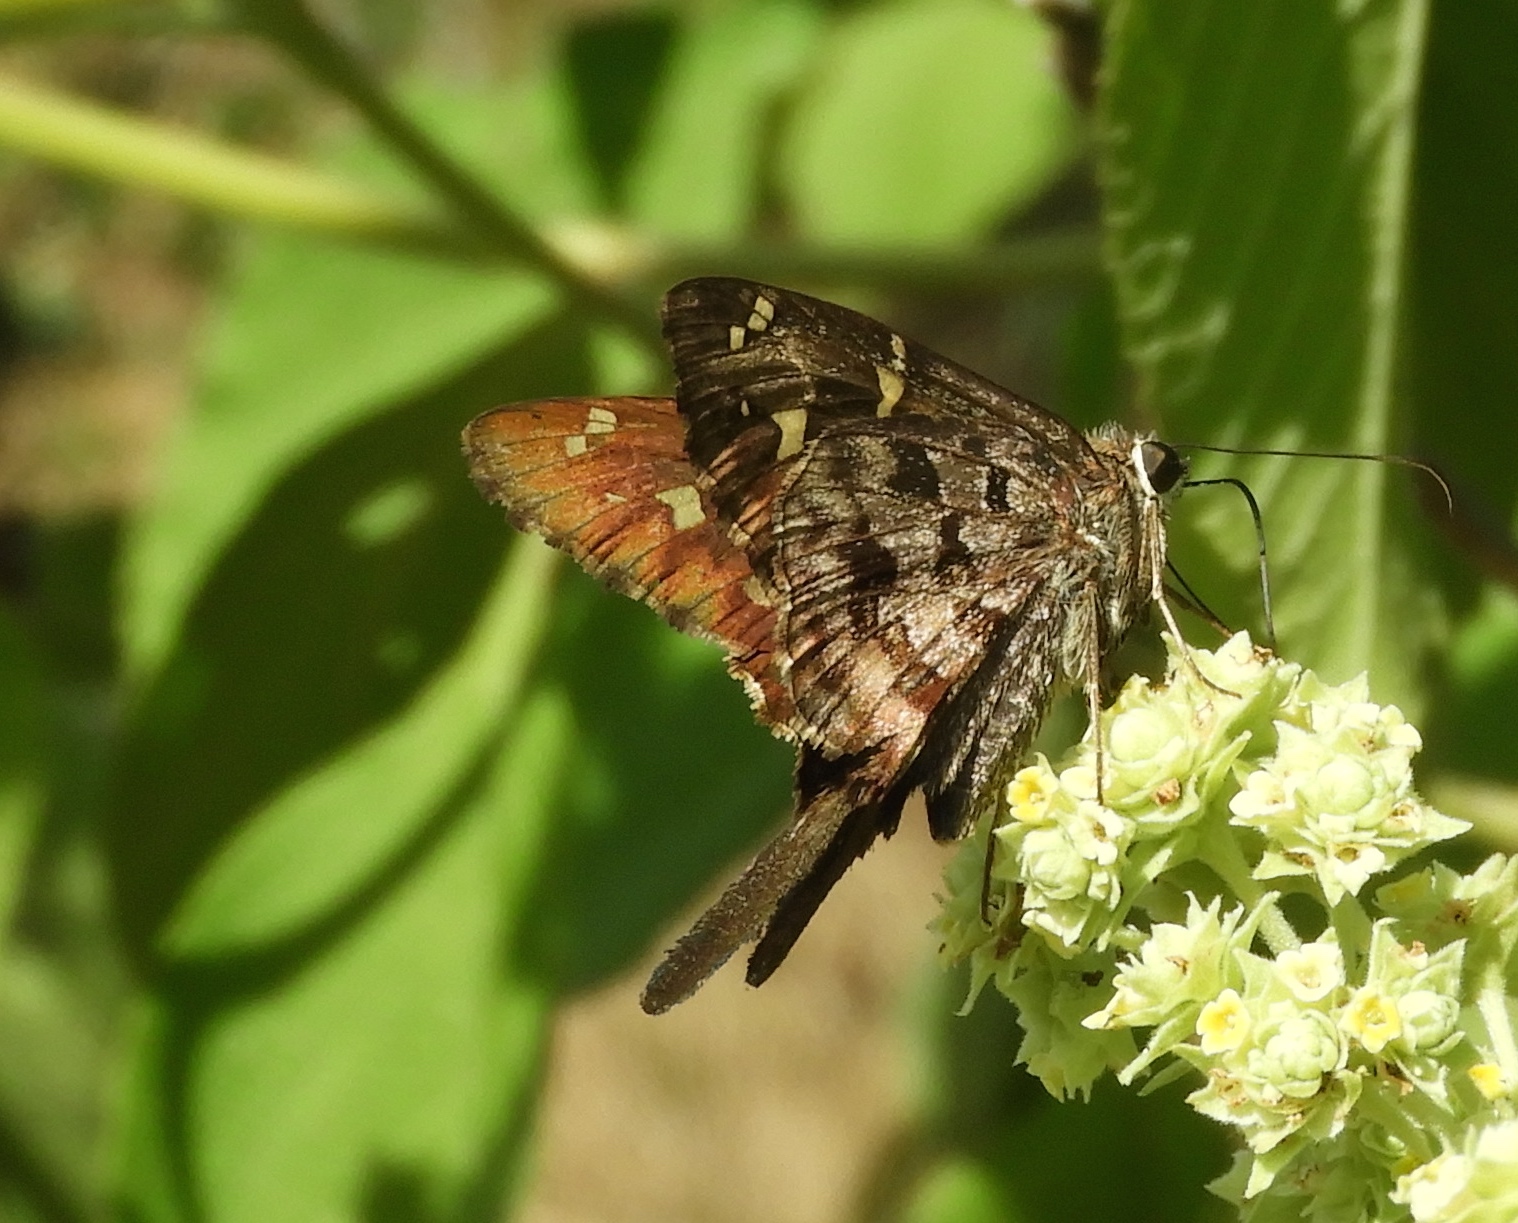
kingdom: Animalia
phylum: Arthropoda
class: Insecta
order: Lepidoptera
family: Hesperiidae
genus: Thorybes
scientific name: Thorybes
